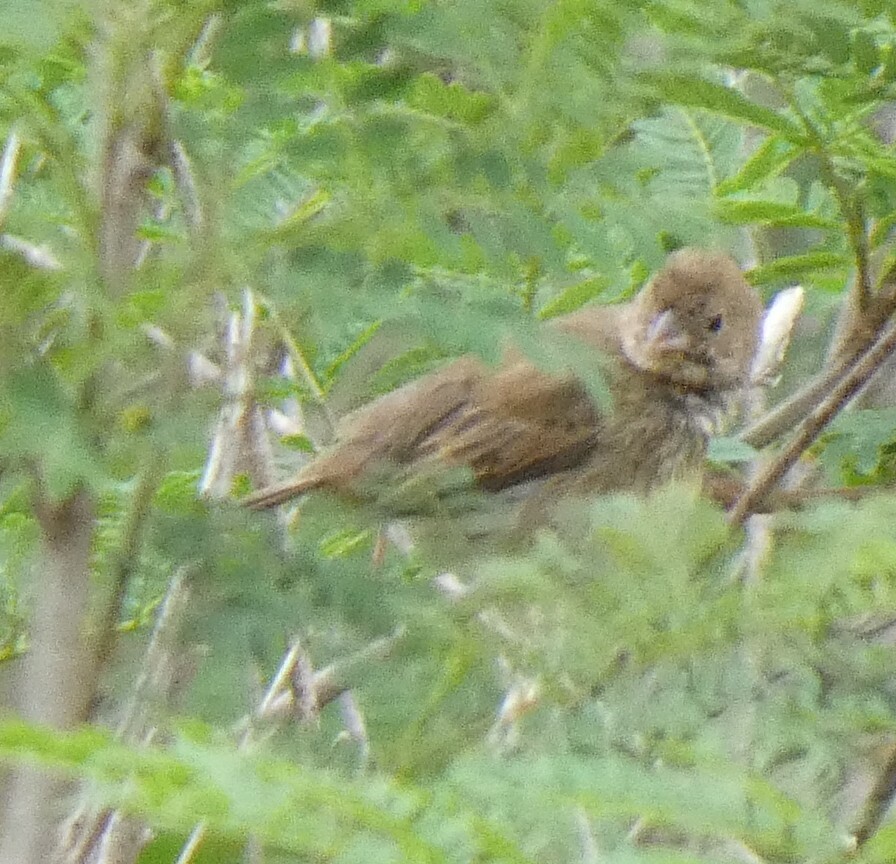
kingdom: Animalia
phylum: Chordata
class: Aves
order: Passeriformes
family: Thraupidae
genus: Volatinia
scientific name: Volatinia jacarina
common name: Blue-black grassquit
